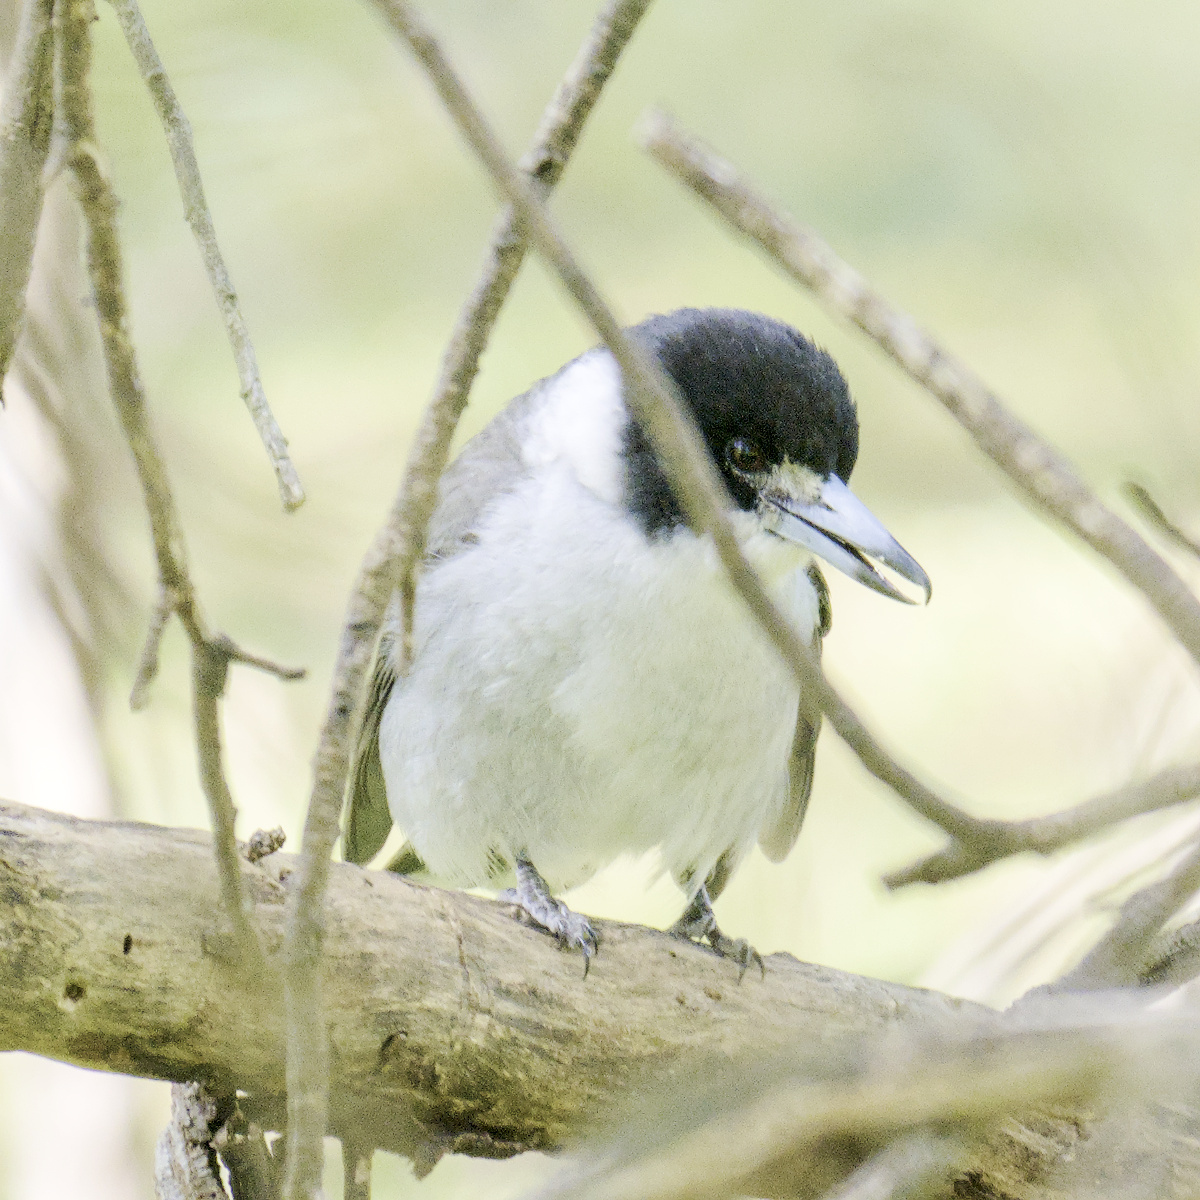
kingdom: Animalia
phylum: Chordata
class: Aves
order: Passeriformes
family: Cracticidae
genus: Cracticus
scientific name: Cracticus torquatus
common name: Grey butcherbird
